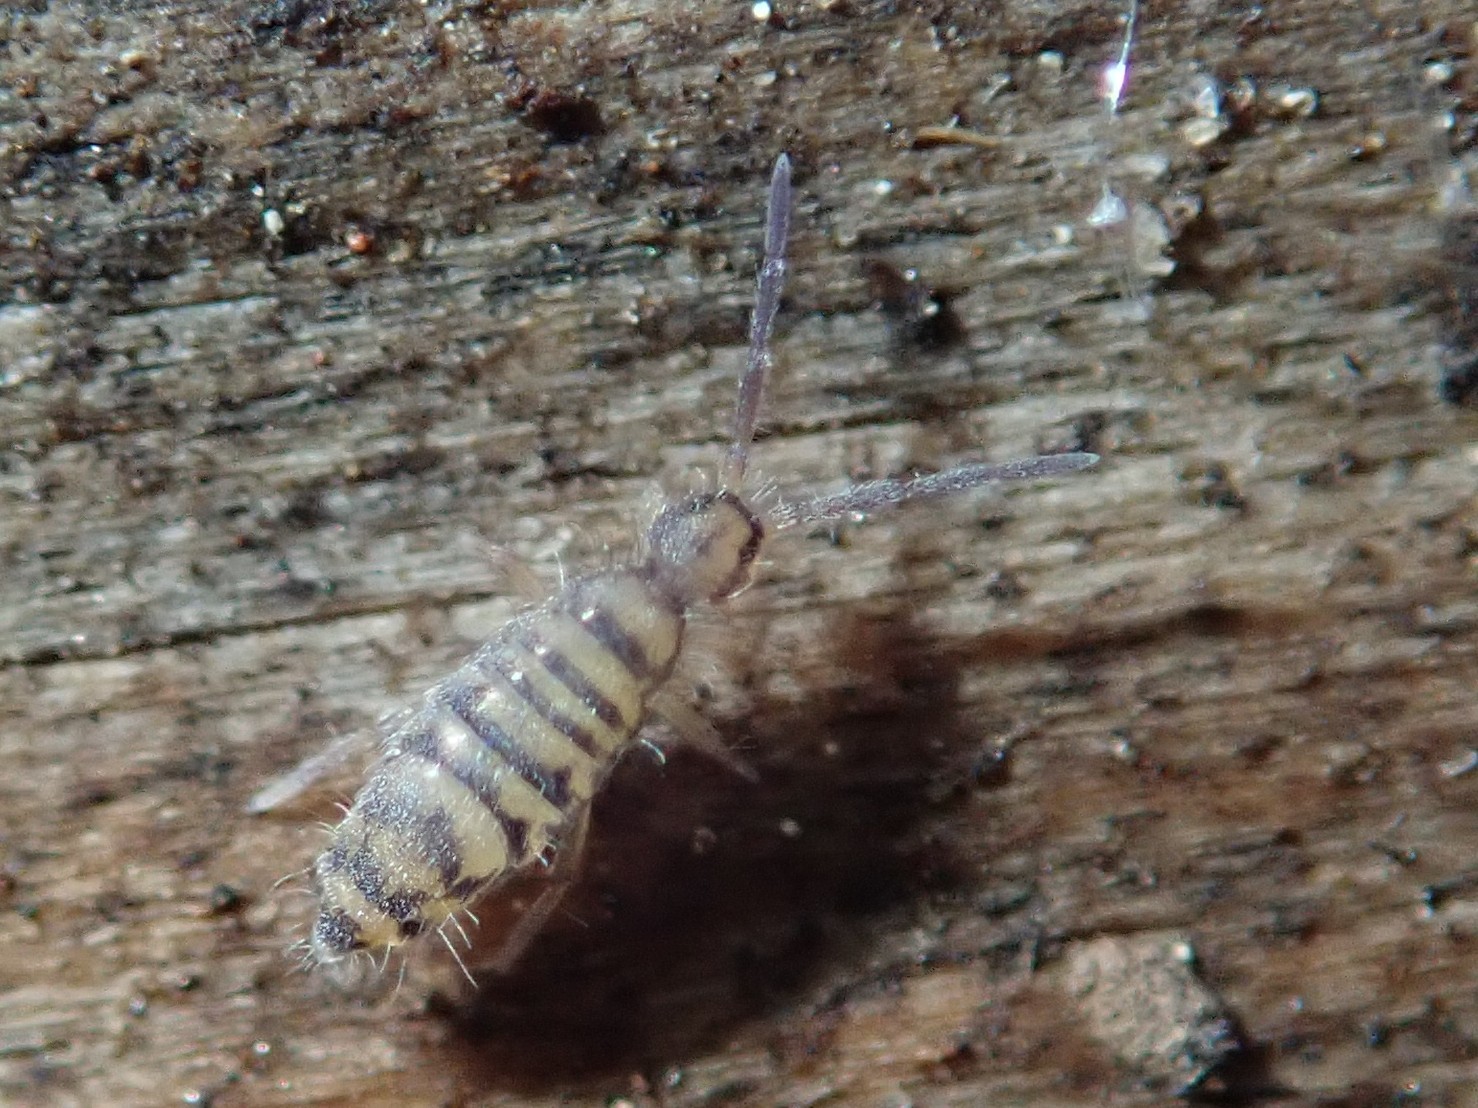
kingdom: Animalia
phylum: Arthropoda
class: Collembola
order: Entomobryomorpha
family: Entomobryidae
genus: Entomobrya
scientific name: Entomobrya multifasciata
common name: Springtail
